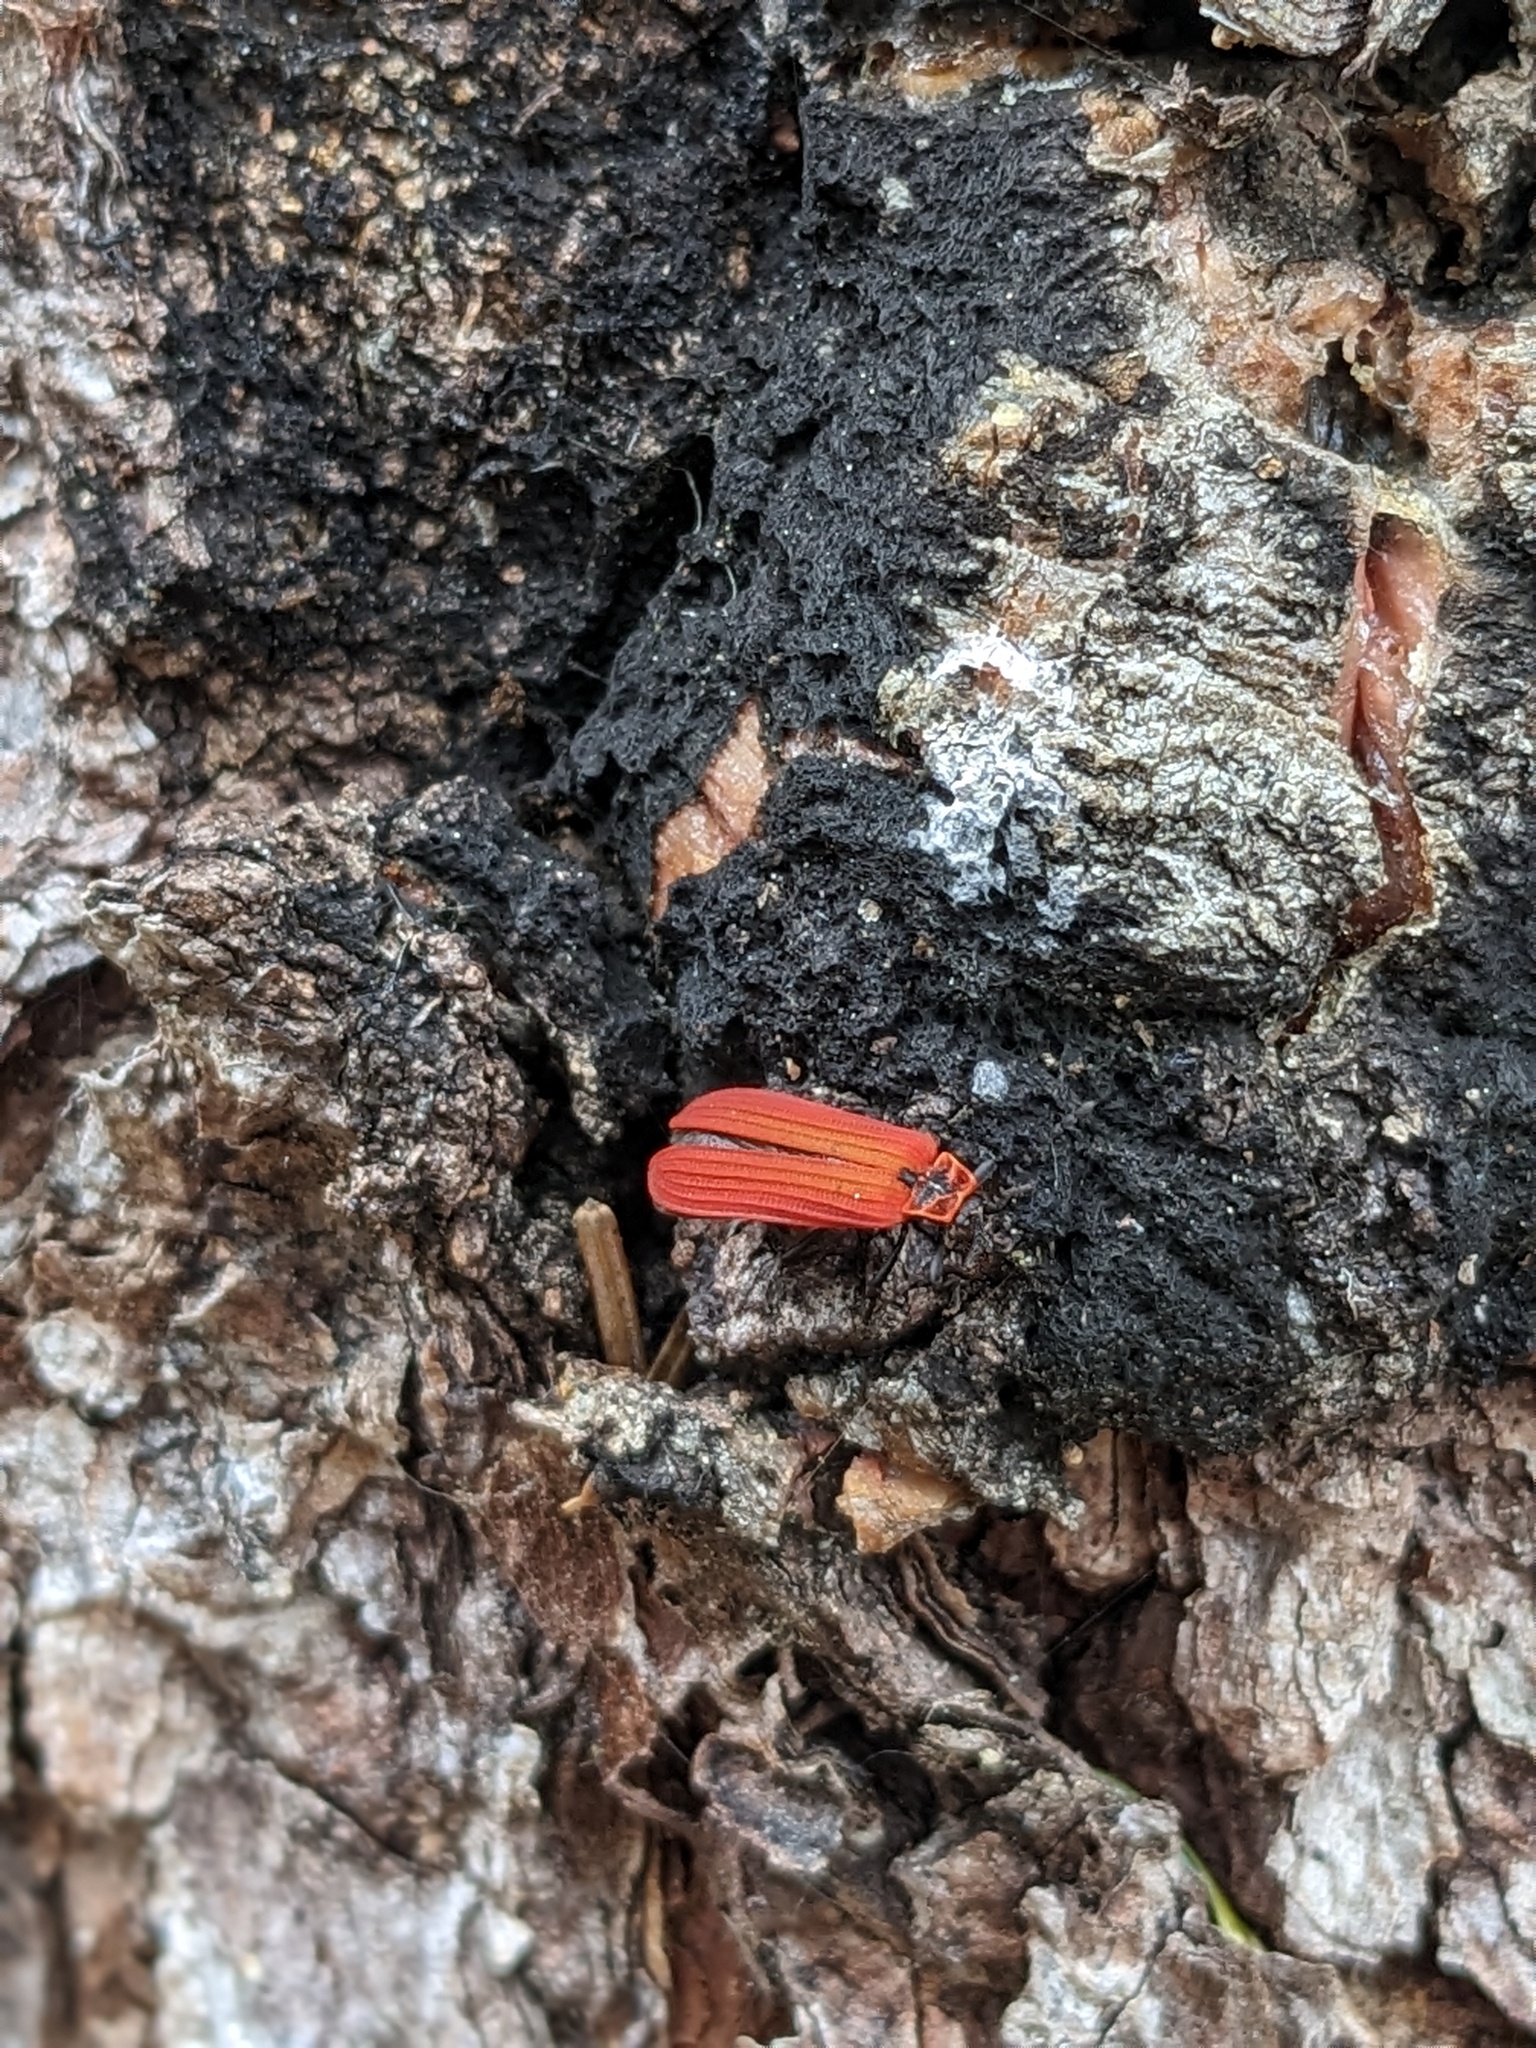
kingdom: Animalia
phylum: Arthropoda
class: Insecta
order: Coleoptera
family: Lycidae
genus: Dictyoptera
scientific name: Dictyoptera aurora
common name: Golden net-winged beetle
